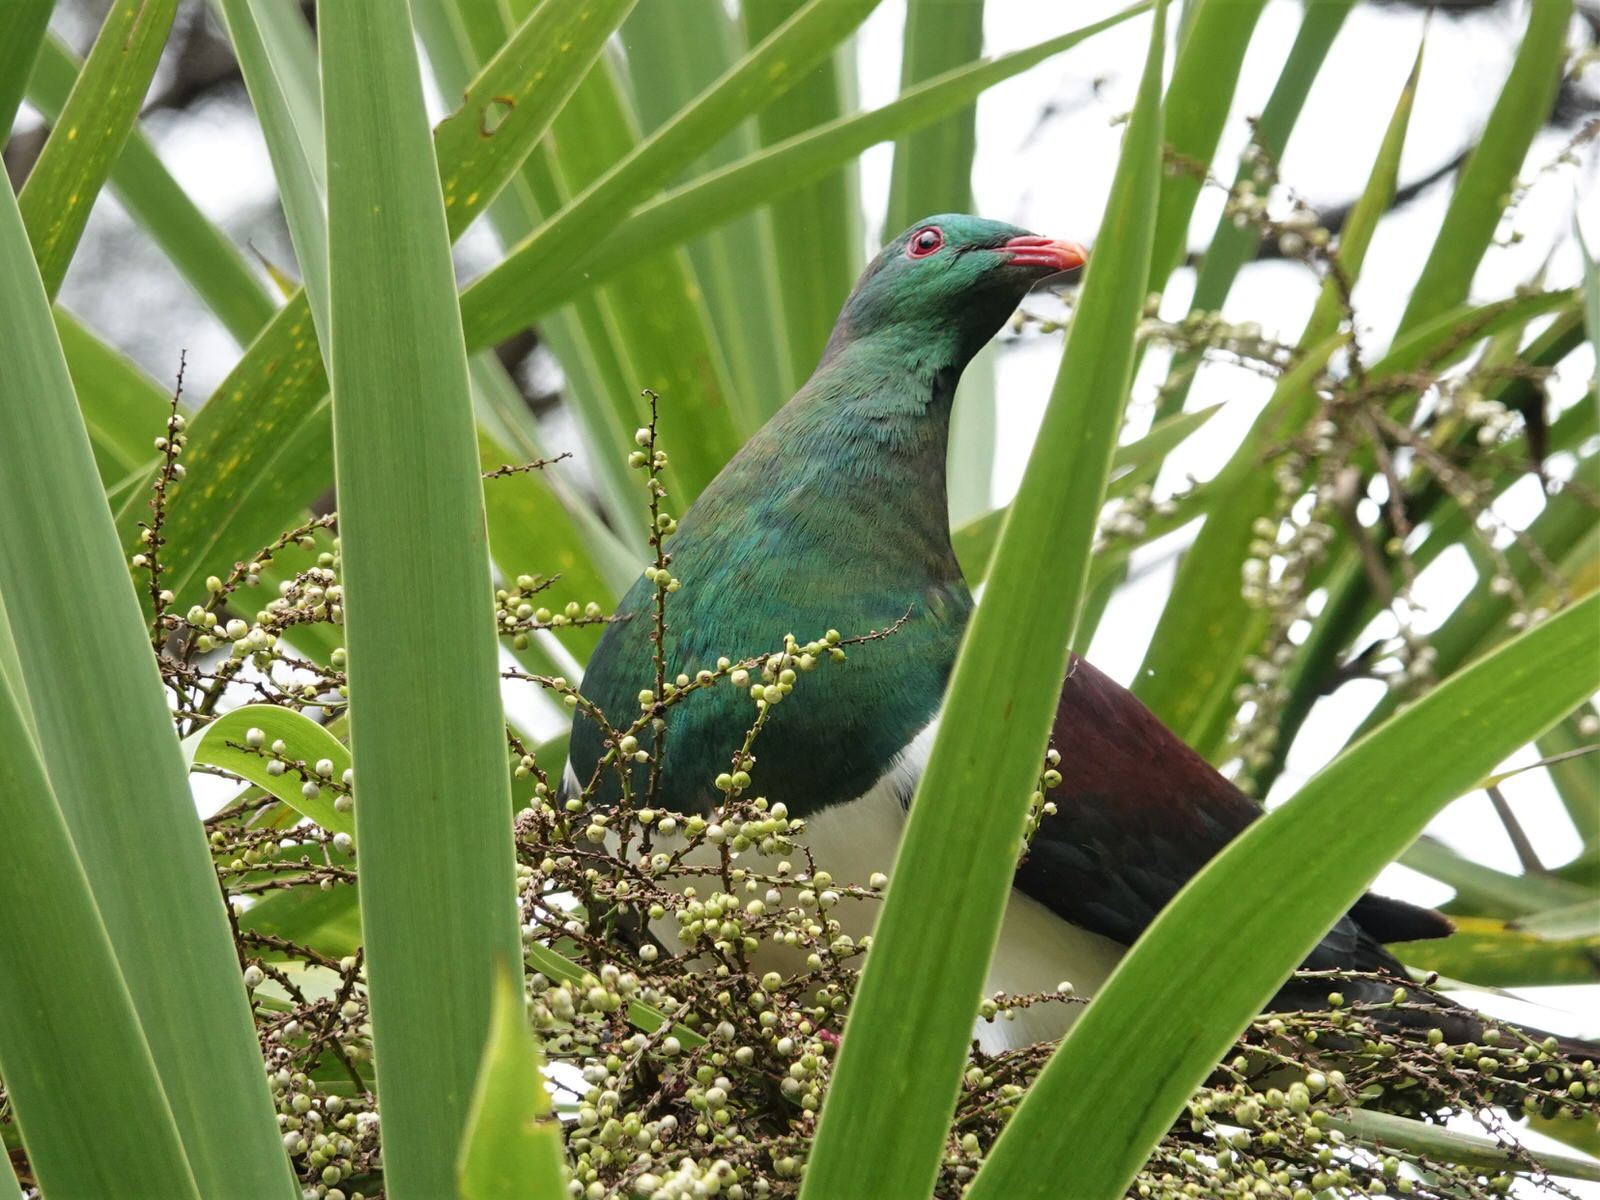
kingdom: Animalia
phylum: Chordata
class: Aves
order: Columbiformes
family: Columbidae
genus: Hemiphaga
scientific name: Hemiphaga novaeseelandiae
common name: New zealand pigeon
